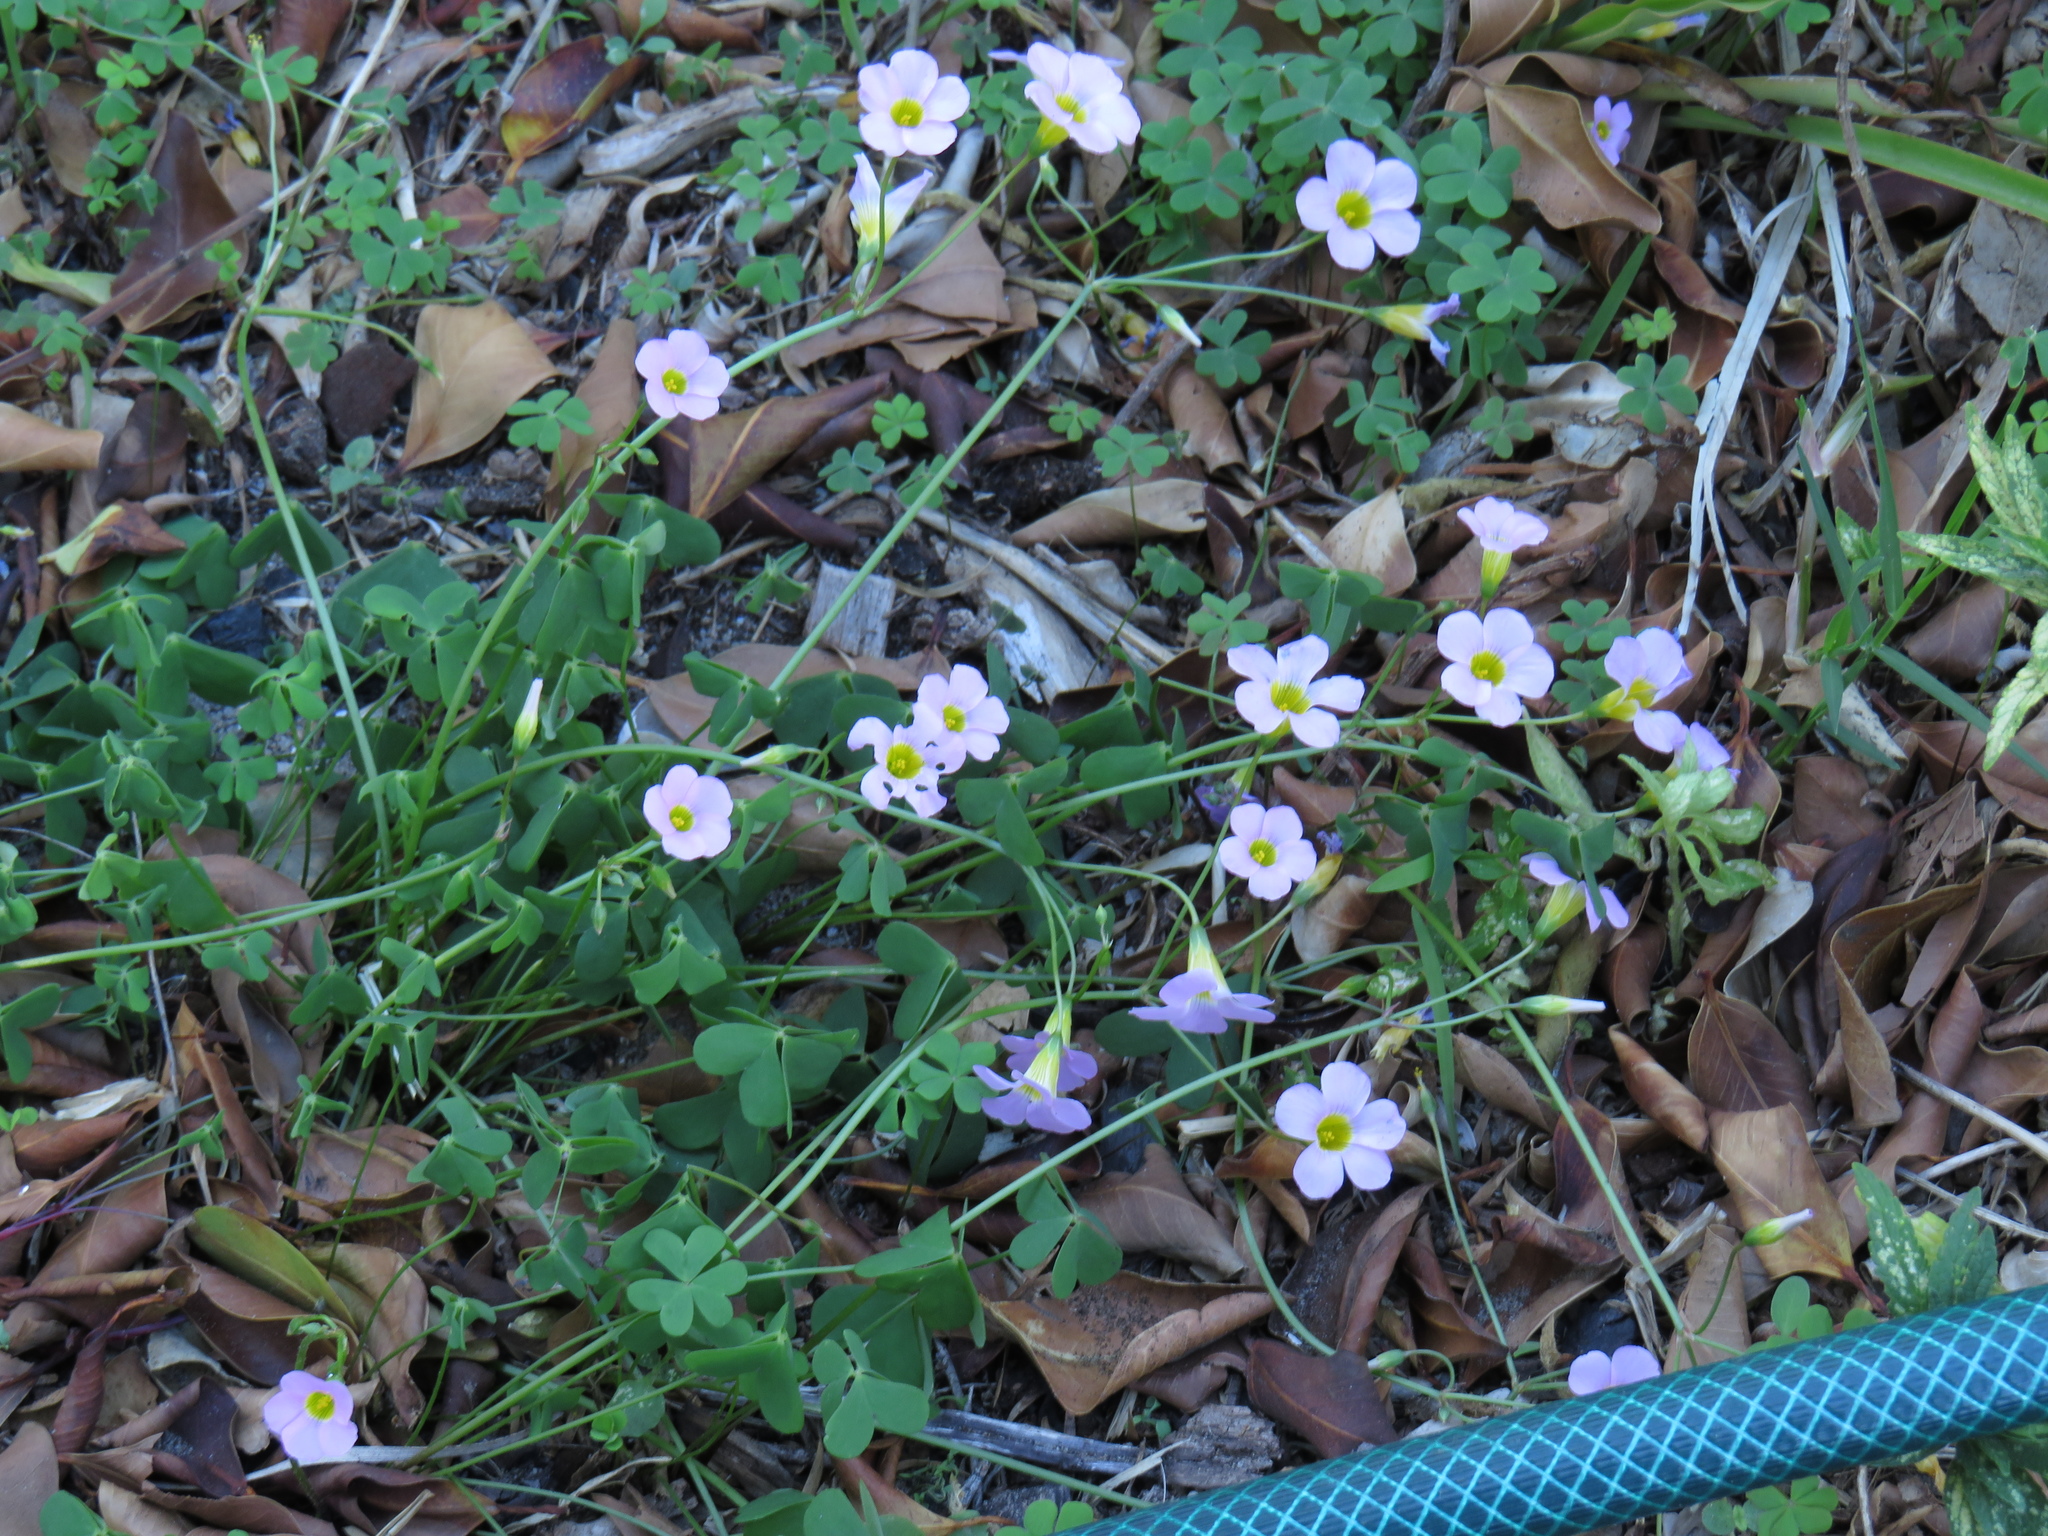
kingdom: Plantae
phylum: Tracheophyta
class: Magnoliopsida
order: Oxalidales
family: Oxalidaceae
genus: Oxalis
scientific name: Oxalis caprina
